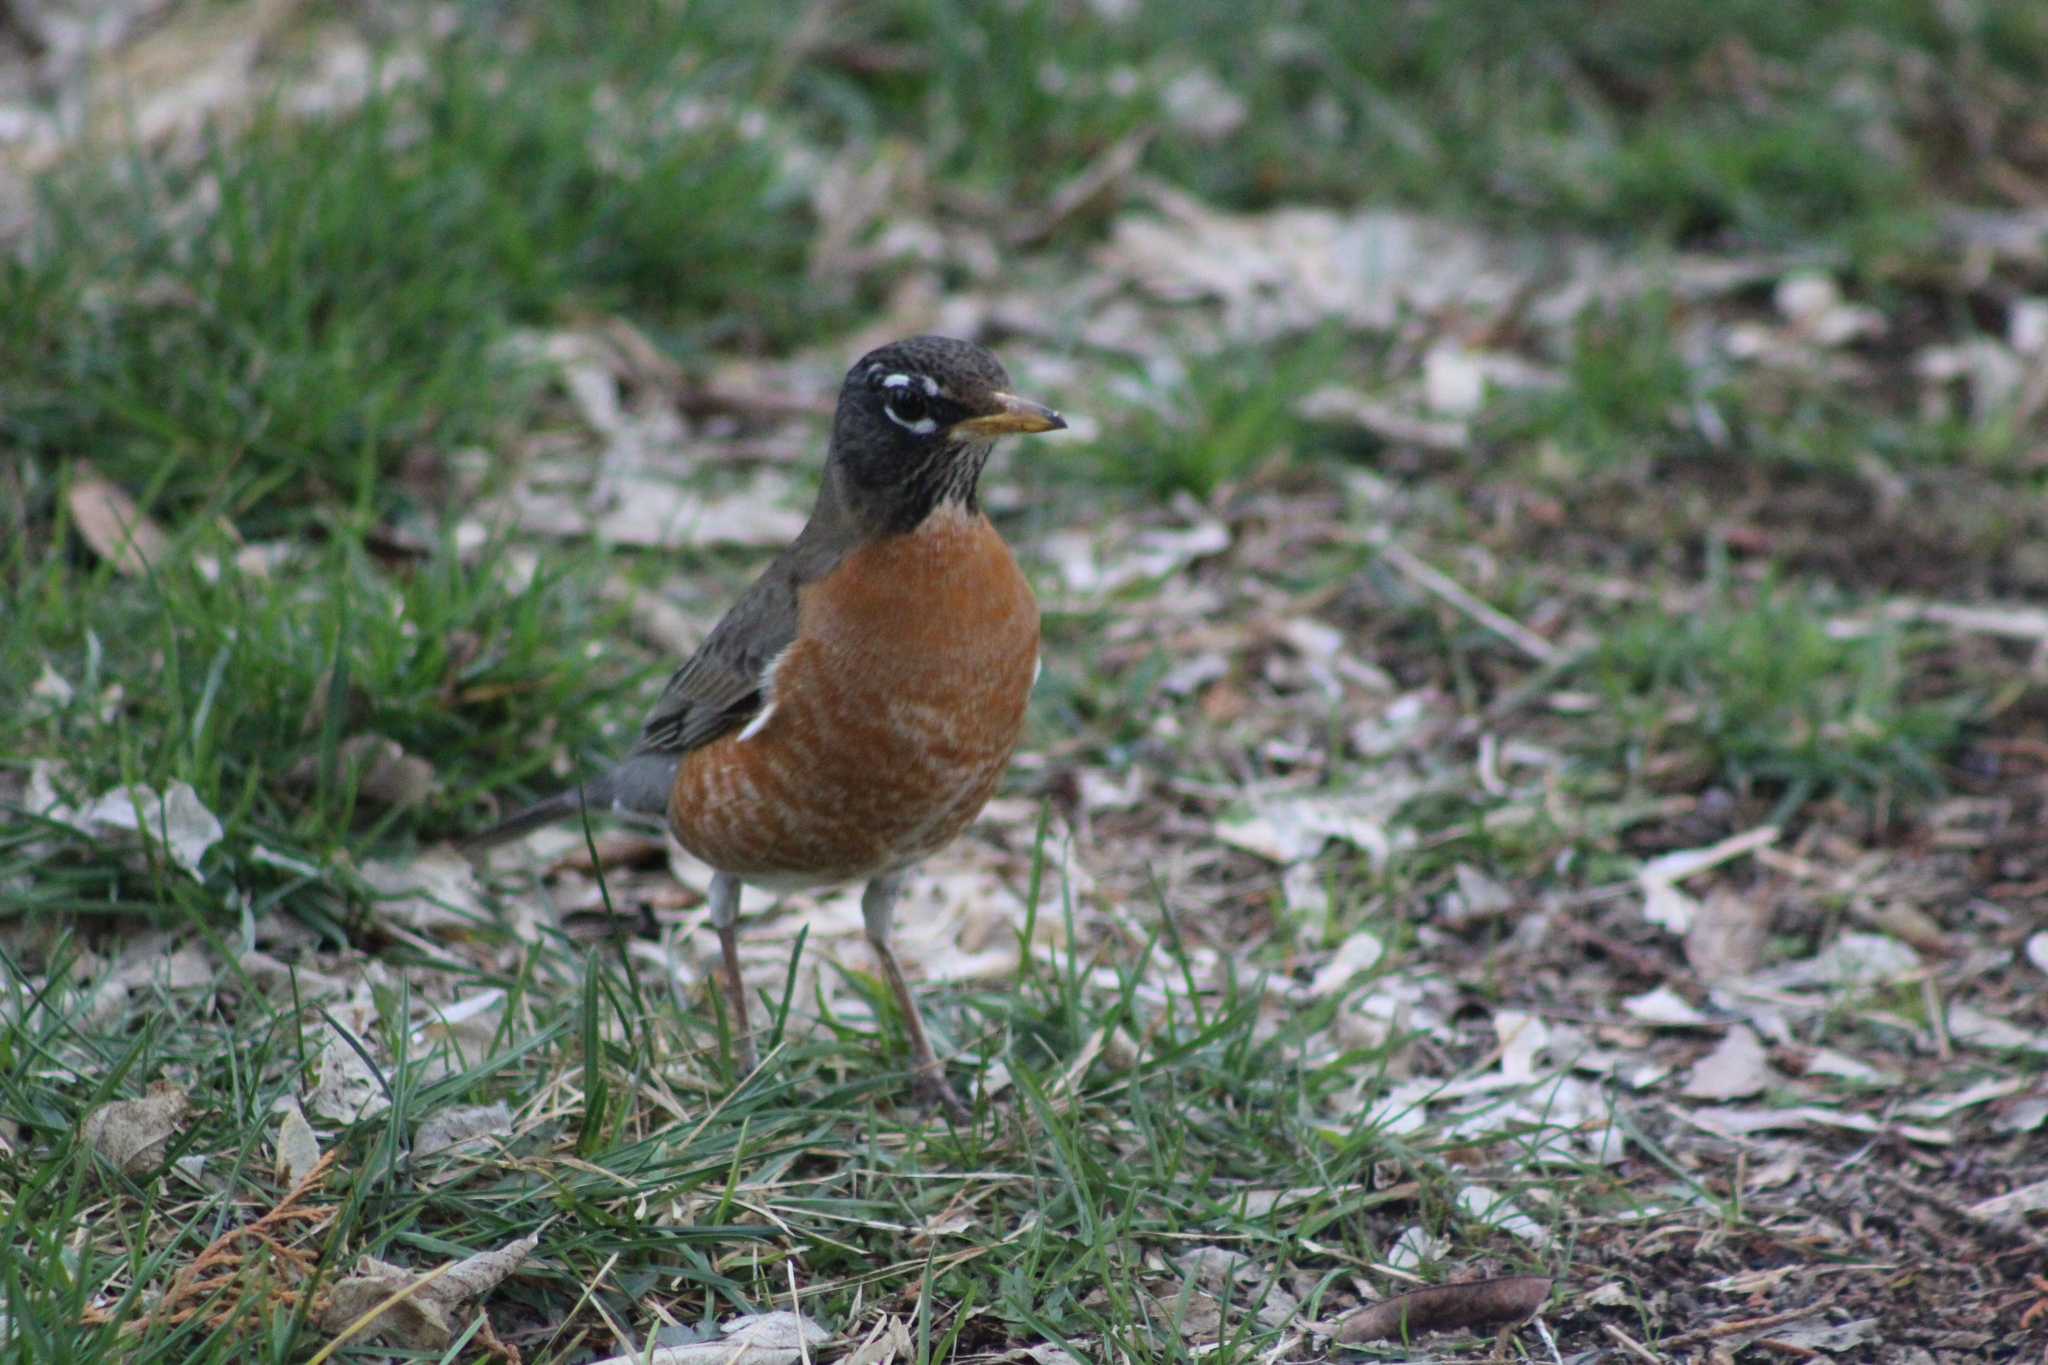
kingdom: Animalia
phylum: Chordata
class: Aves
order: Passeriformes
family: Turdidae
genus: Turdus
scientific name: Turdus migratorius
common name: American robin
